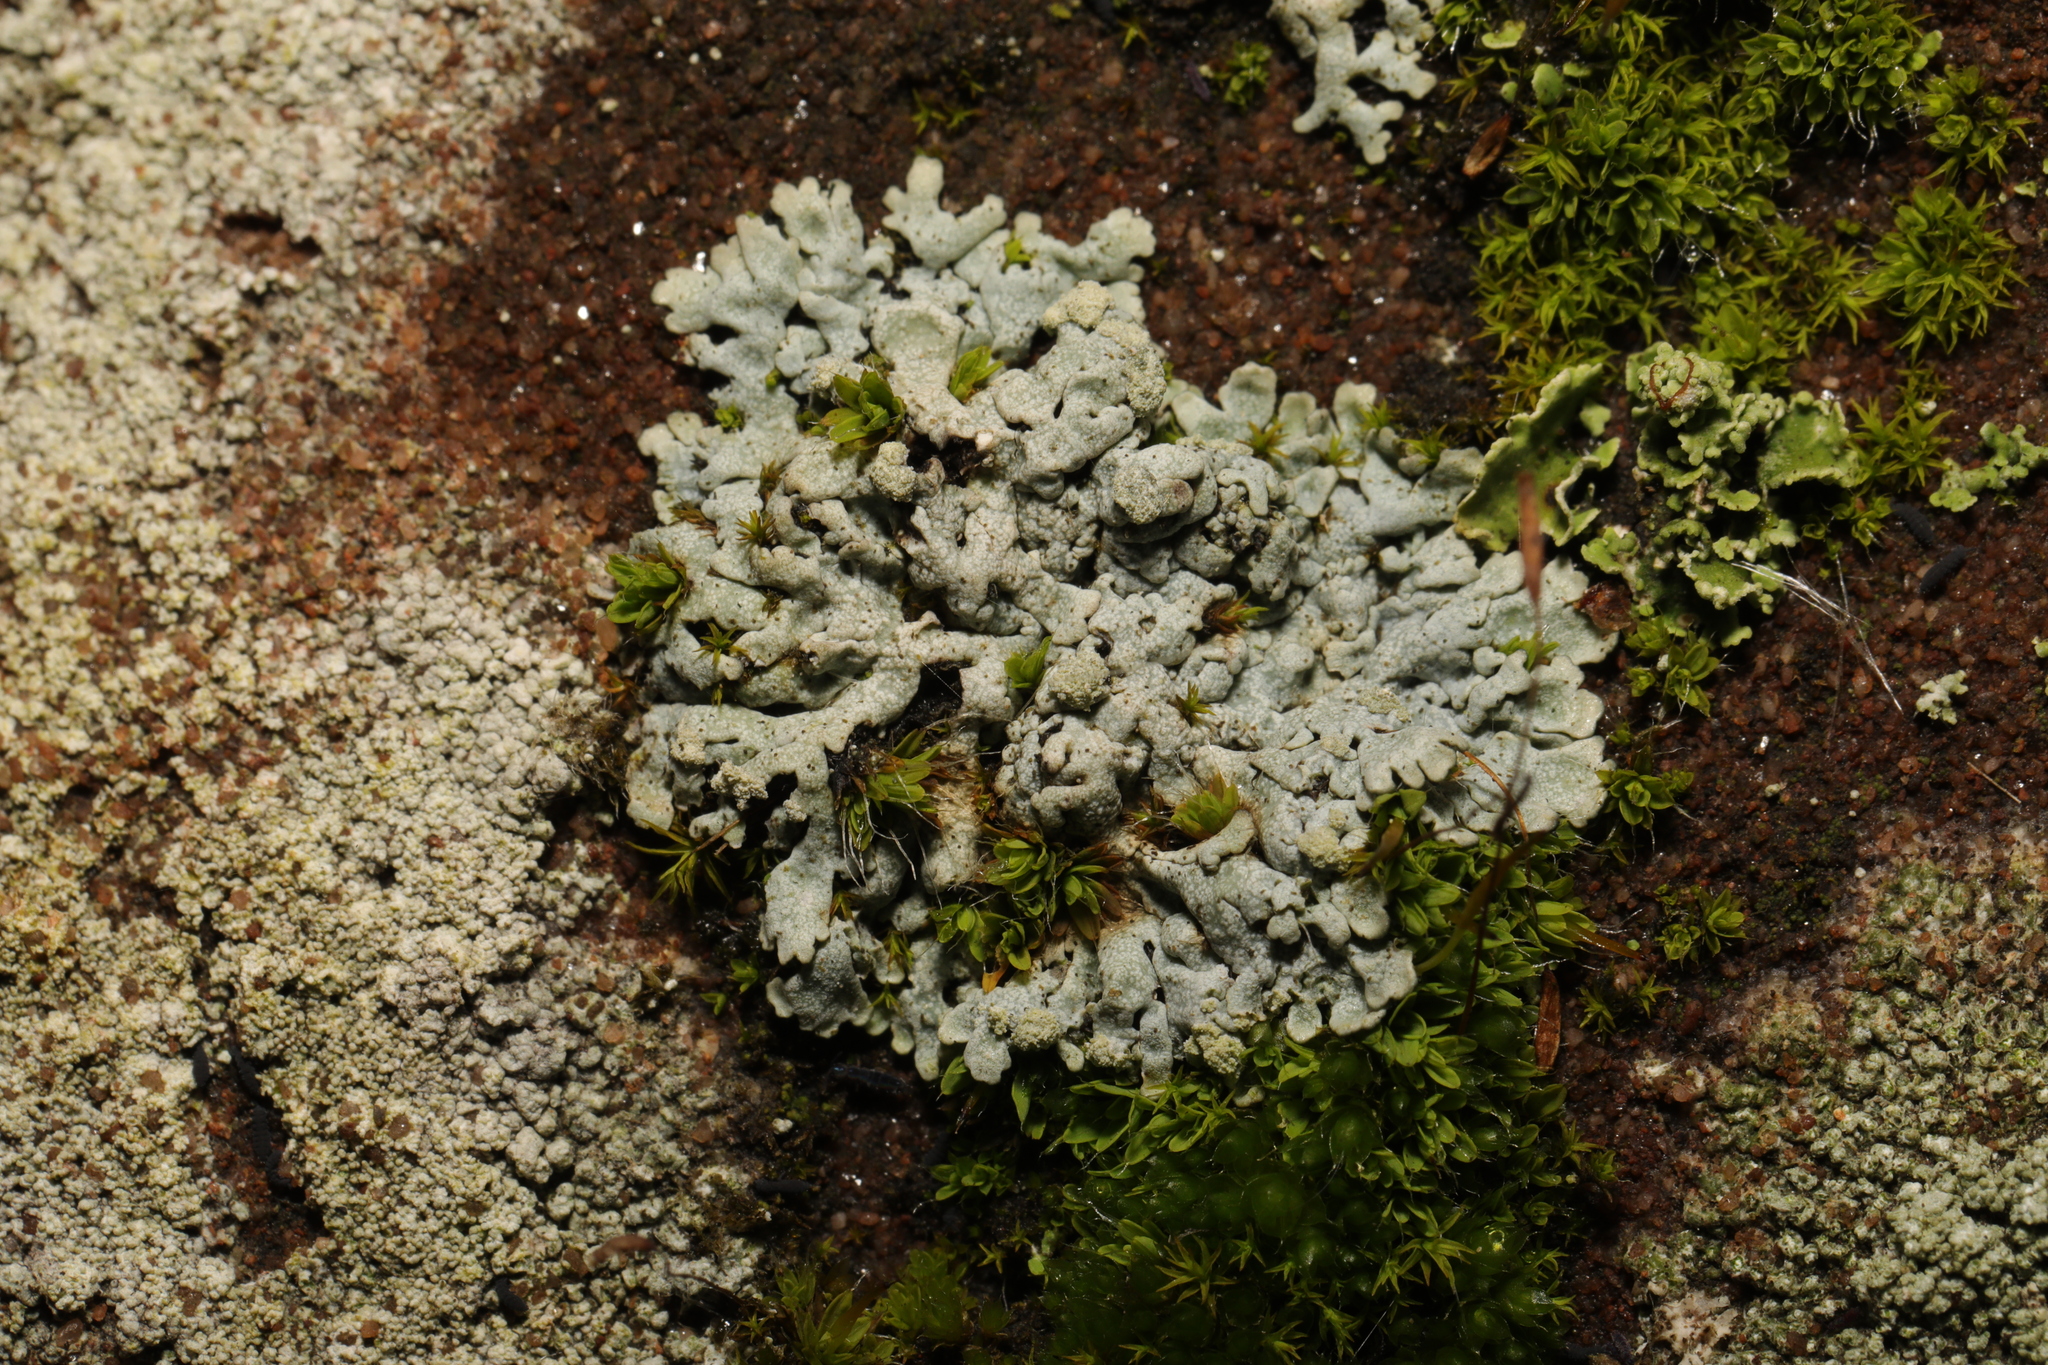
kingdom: Fungi
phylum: Ascomycota
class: Lecanoromycetes
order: Caliciales
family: Physciaceae
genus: Physcia
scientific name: Physcia caesia
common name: Blue-gray rosette lichen
